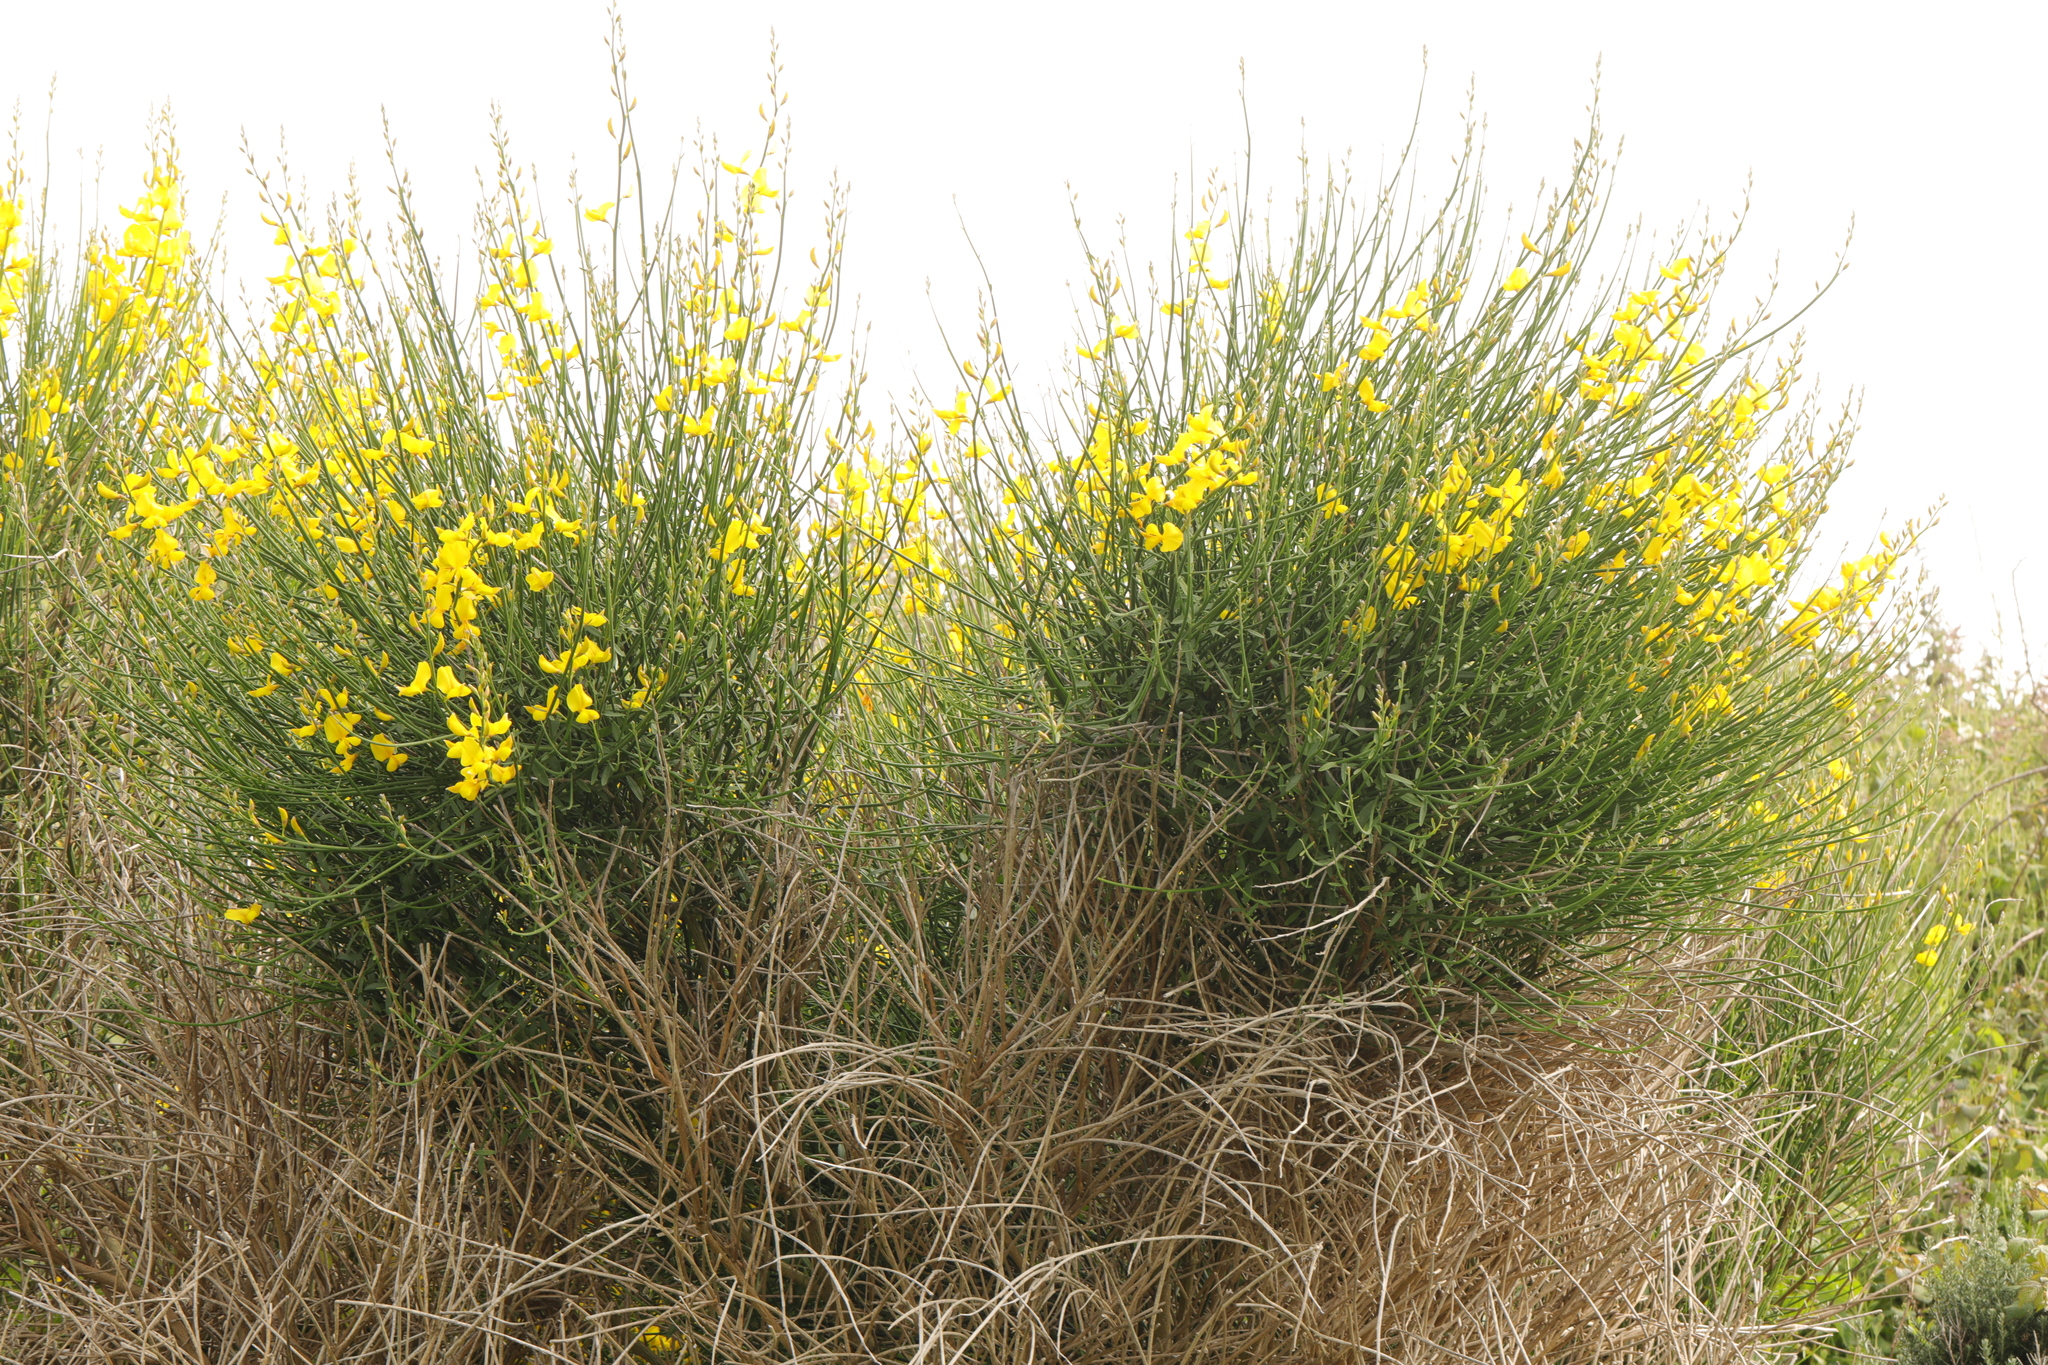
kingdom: Plantae
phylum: Tracheophyta
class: Magnoliopsida
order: Fabales
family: Fabaceae
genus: Spartium
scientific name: Spartium junceum
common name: Spanish broom
